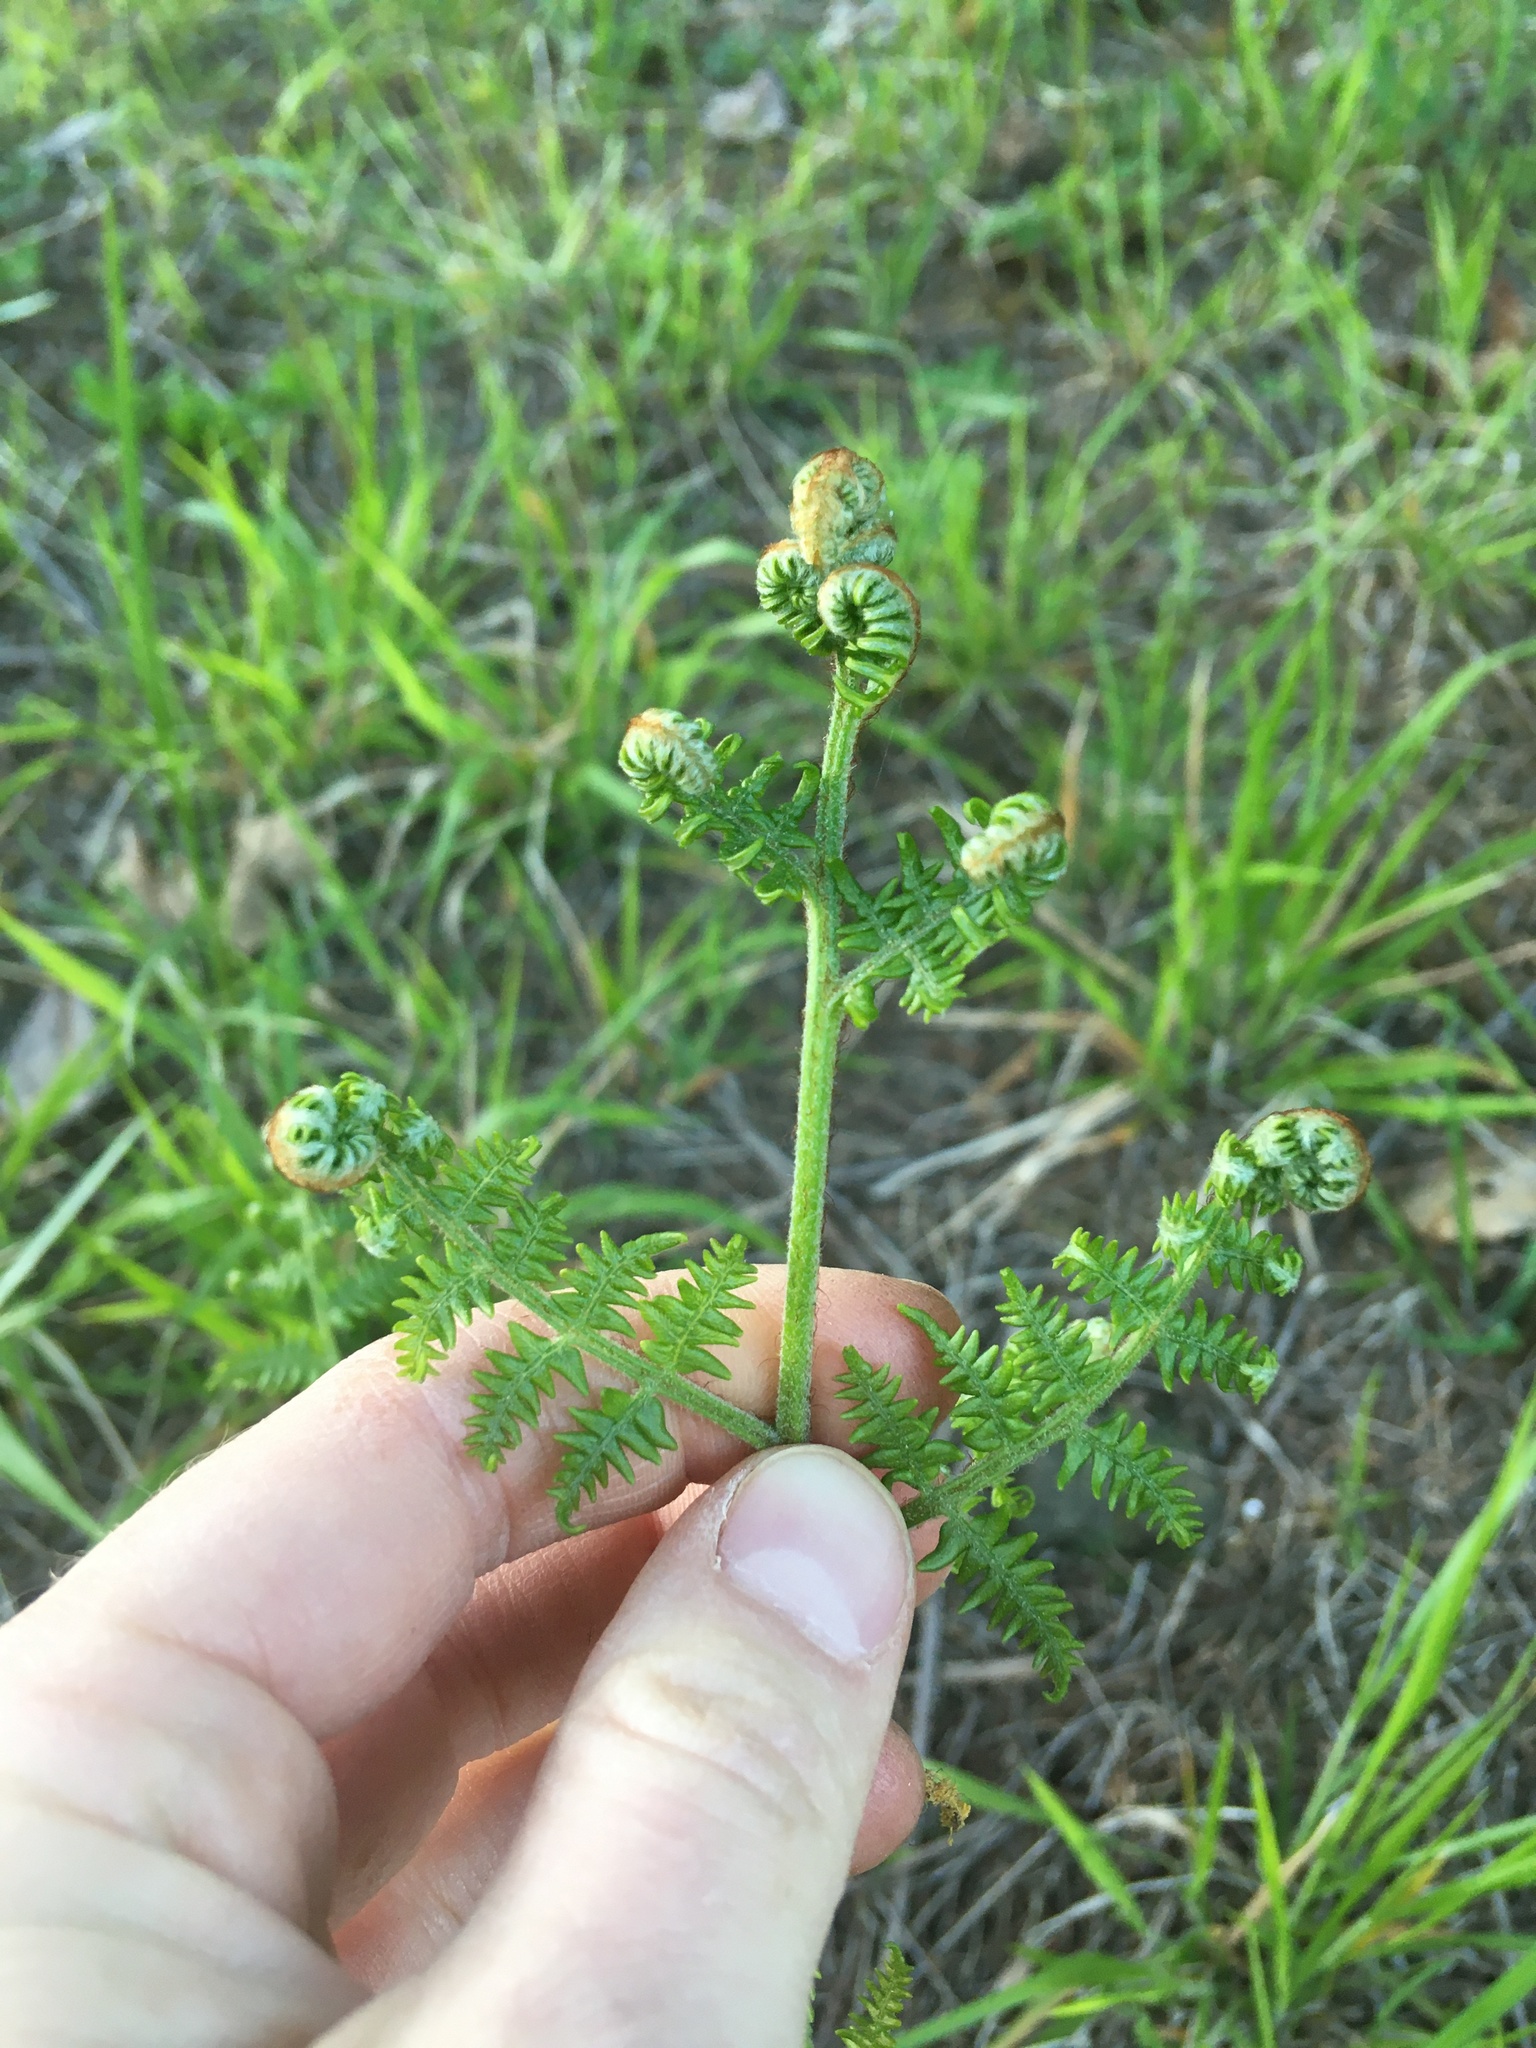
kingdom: Plantae
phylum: Tracheophyta
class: Polypodiopsida
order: Polypodiales
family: Dennstaedtiaceae
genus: Pteridium
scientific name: Pteridium aquilinum
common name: Bracken
